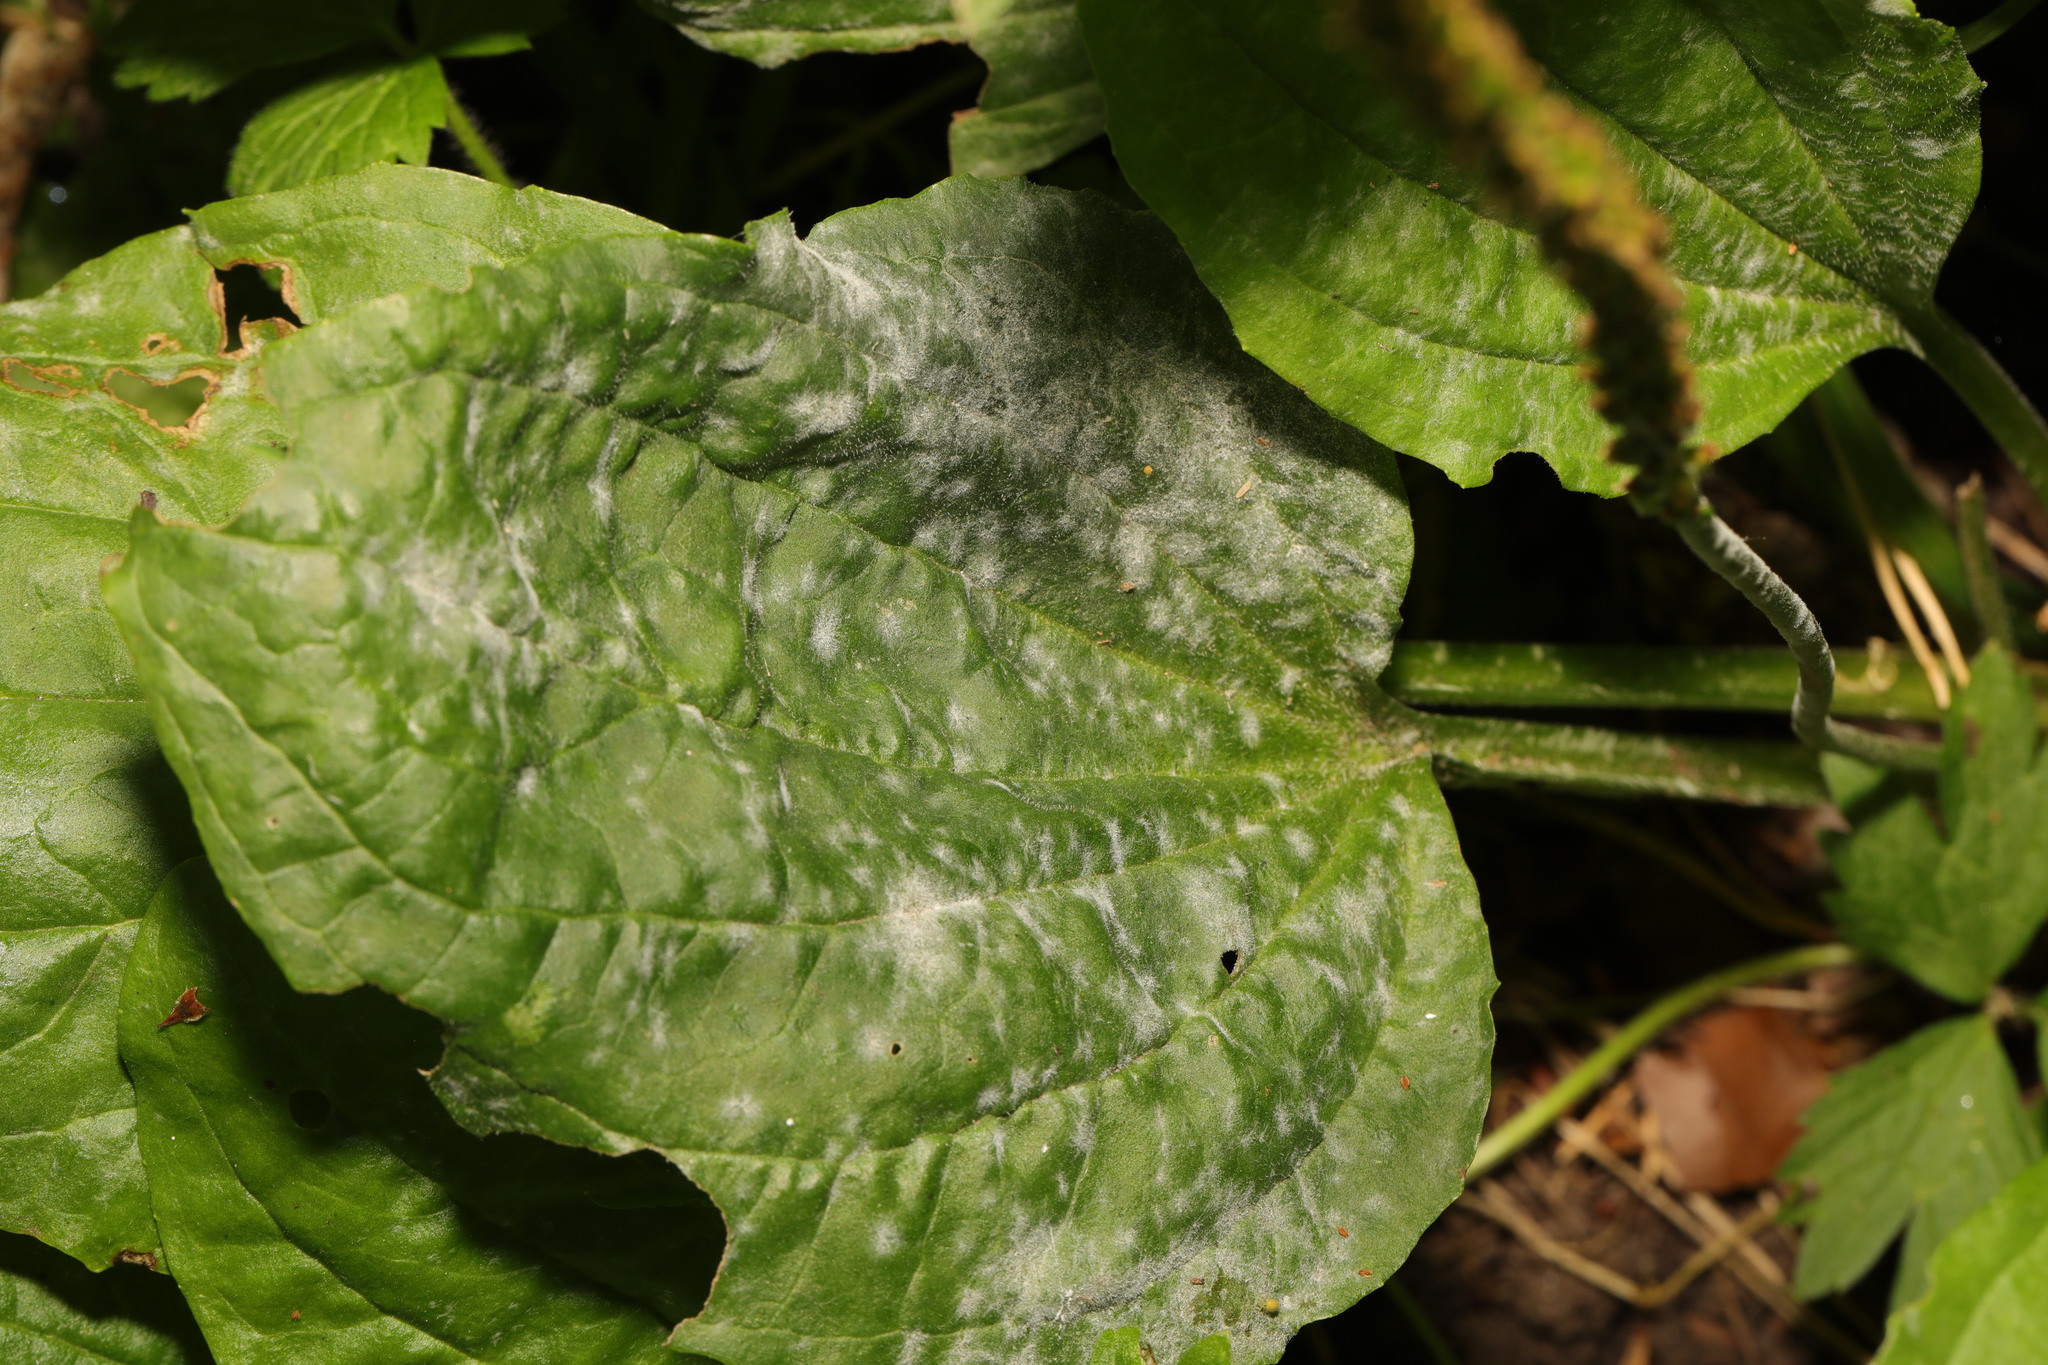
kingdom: Plantae
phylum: Tracheophyta
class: Magnoliopsida
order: Lamiales
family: Plantaginaceae
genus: Plantago
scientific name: Plantago major
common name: Common plantain
